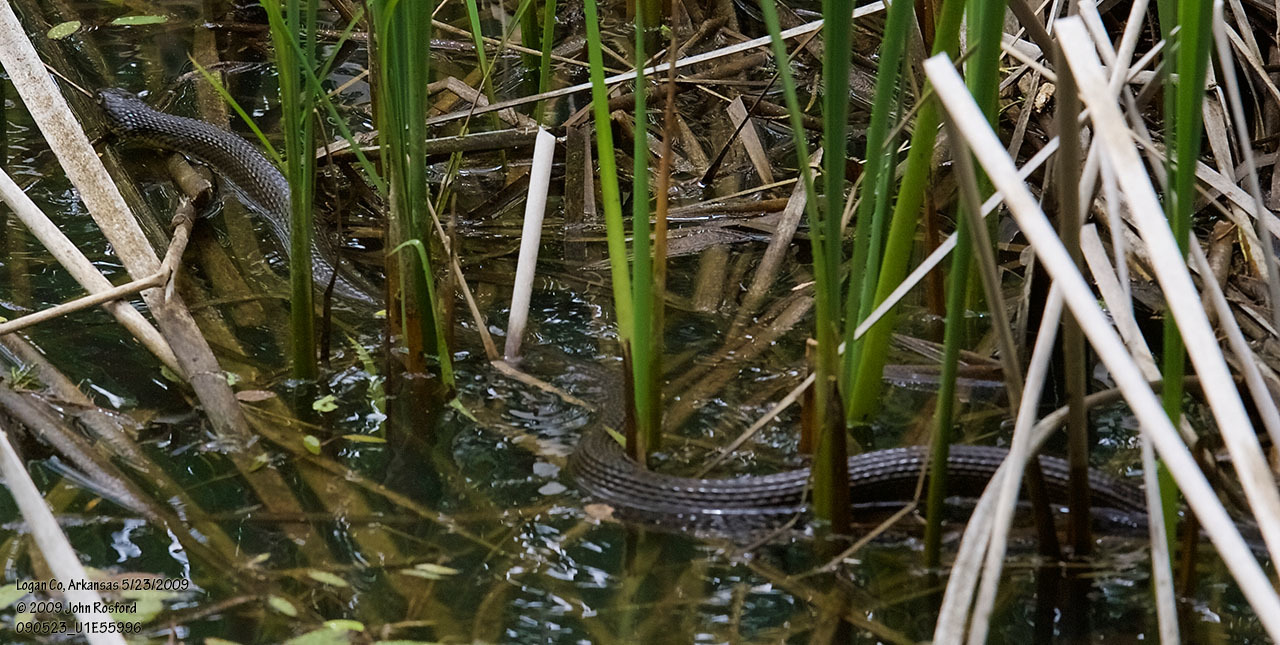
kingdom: Animalia
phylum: Chordata
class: Squamata
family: Colubridae
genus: Nerodia
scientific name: Nerodia erythrogaster
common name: Plainbelly water snake
